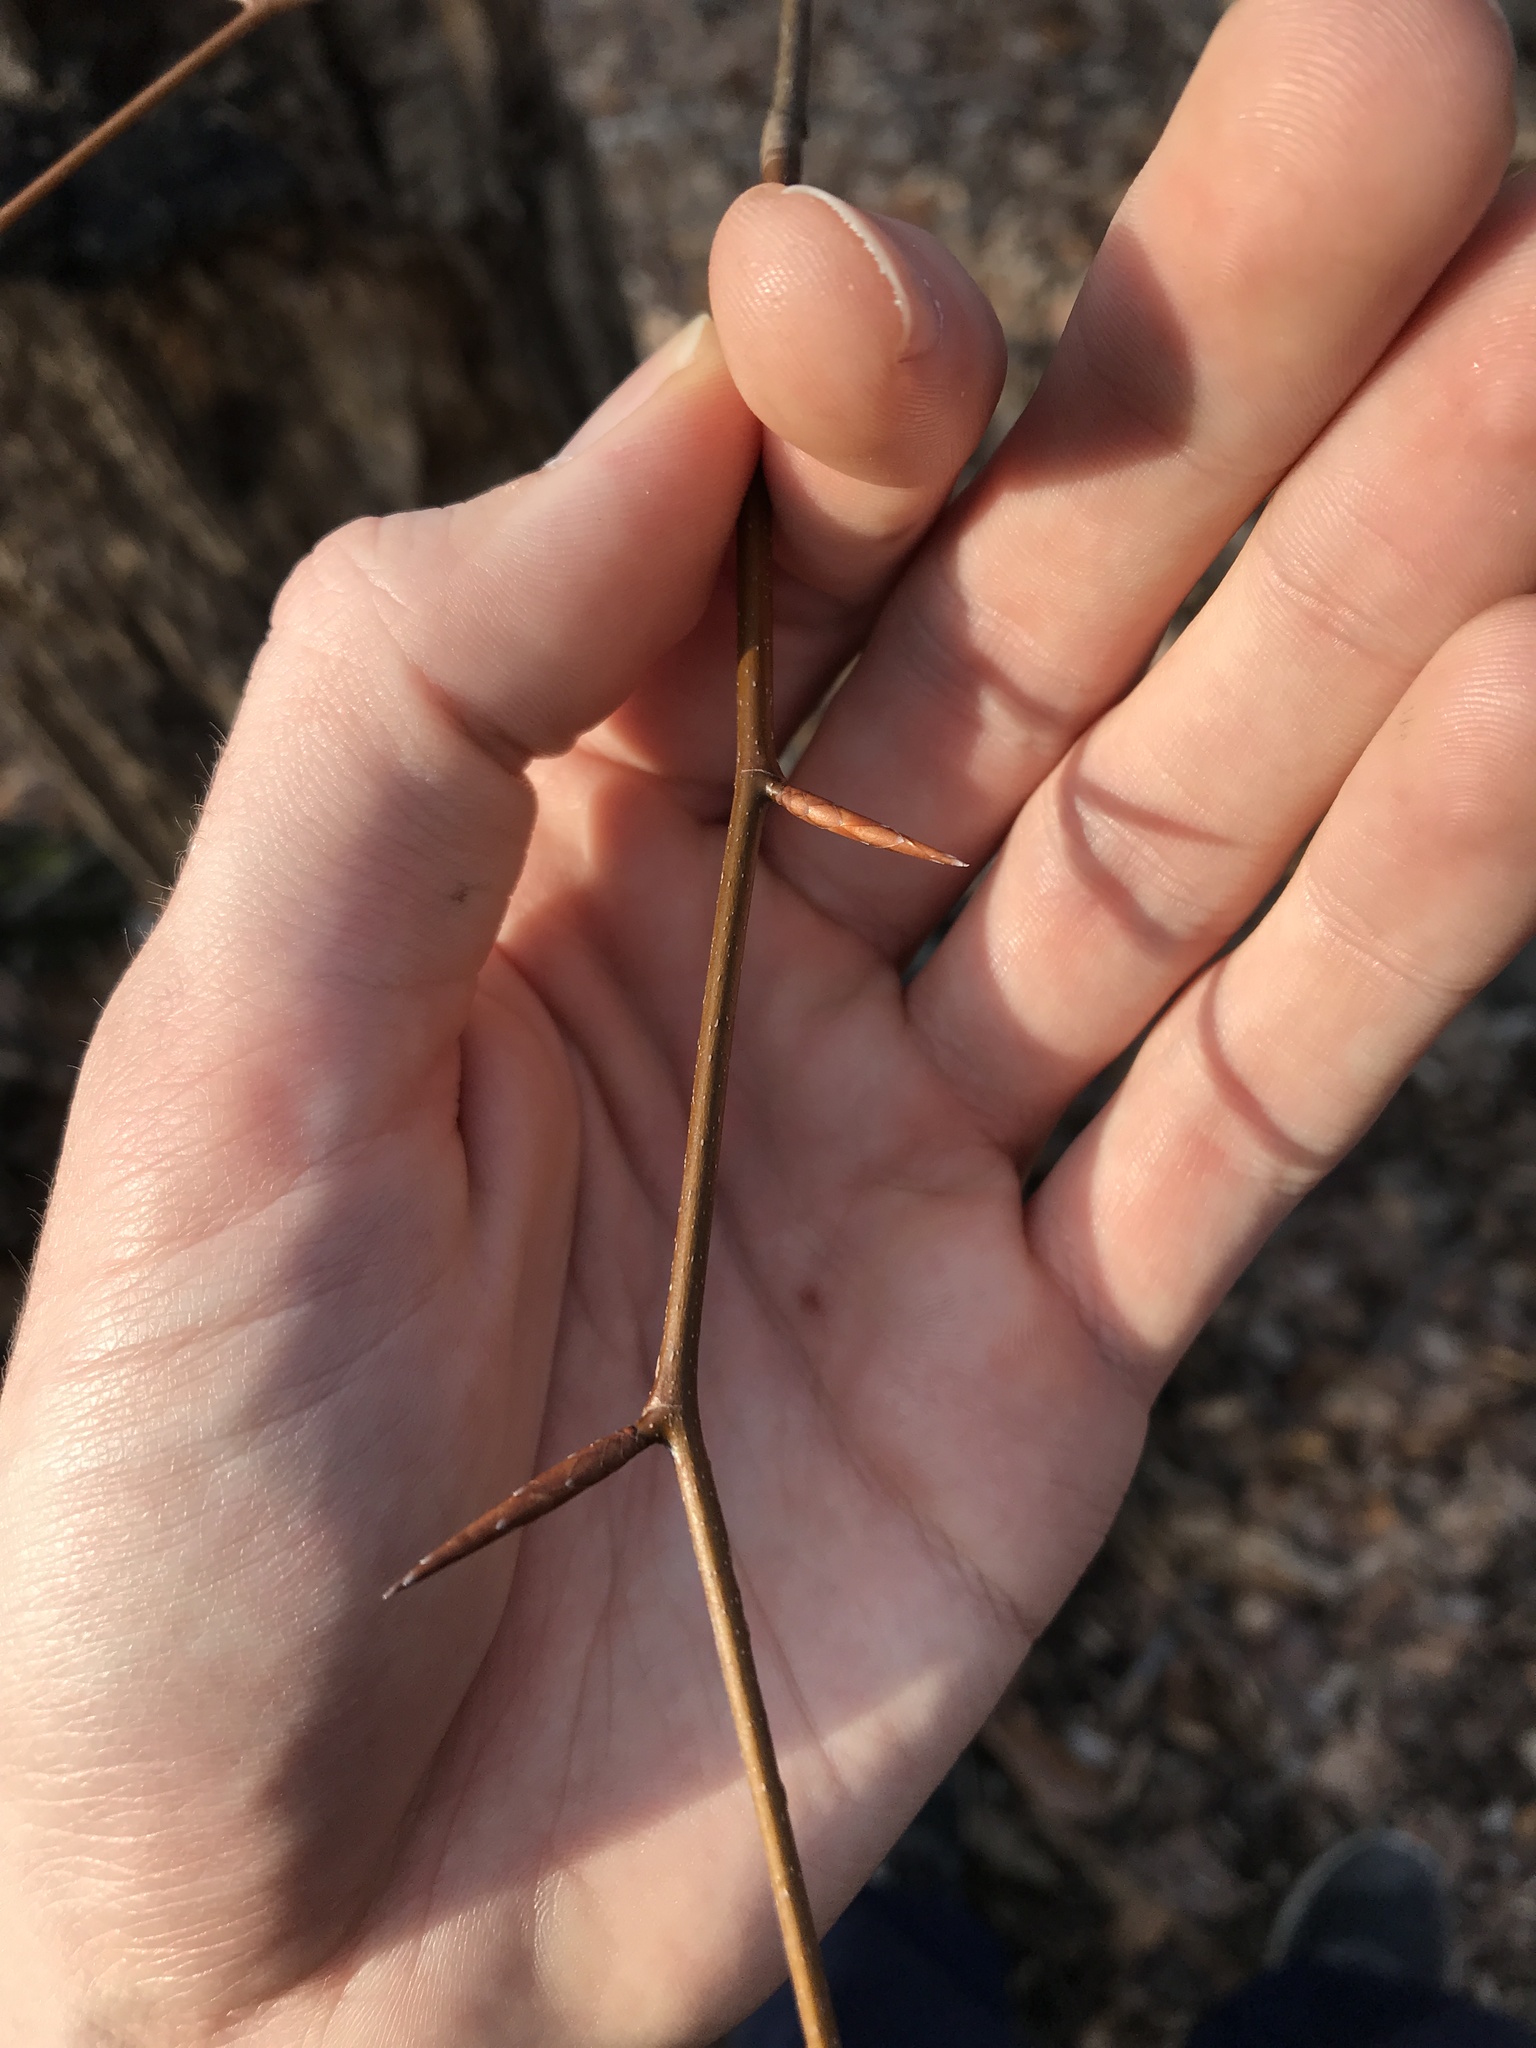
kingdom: Plantae
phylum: Tracheophyta
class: Magnoliopsida
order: Fagales
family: Fagaceae
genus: Fagus
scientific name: Fagus grandifolia
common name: American beech
